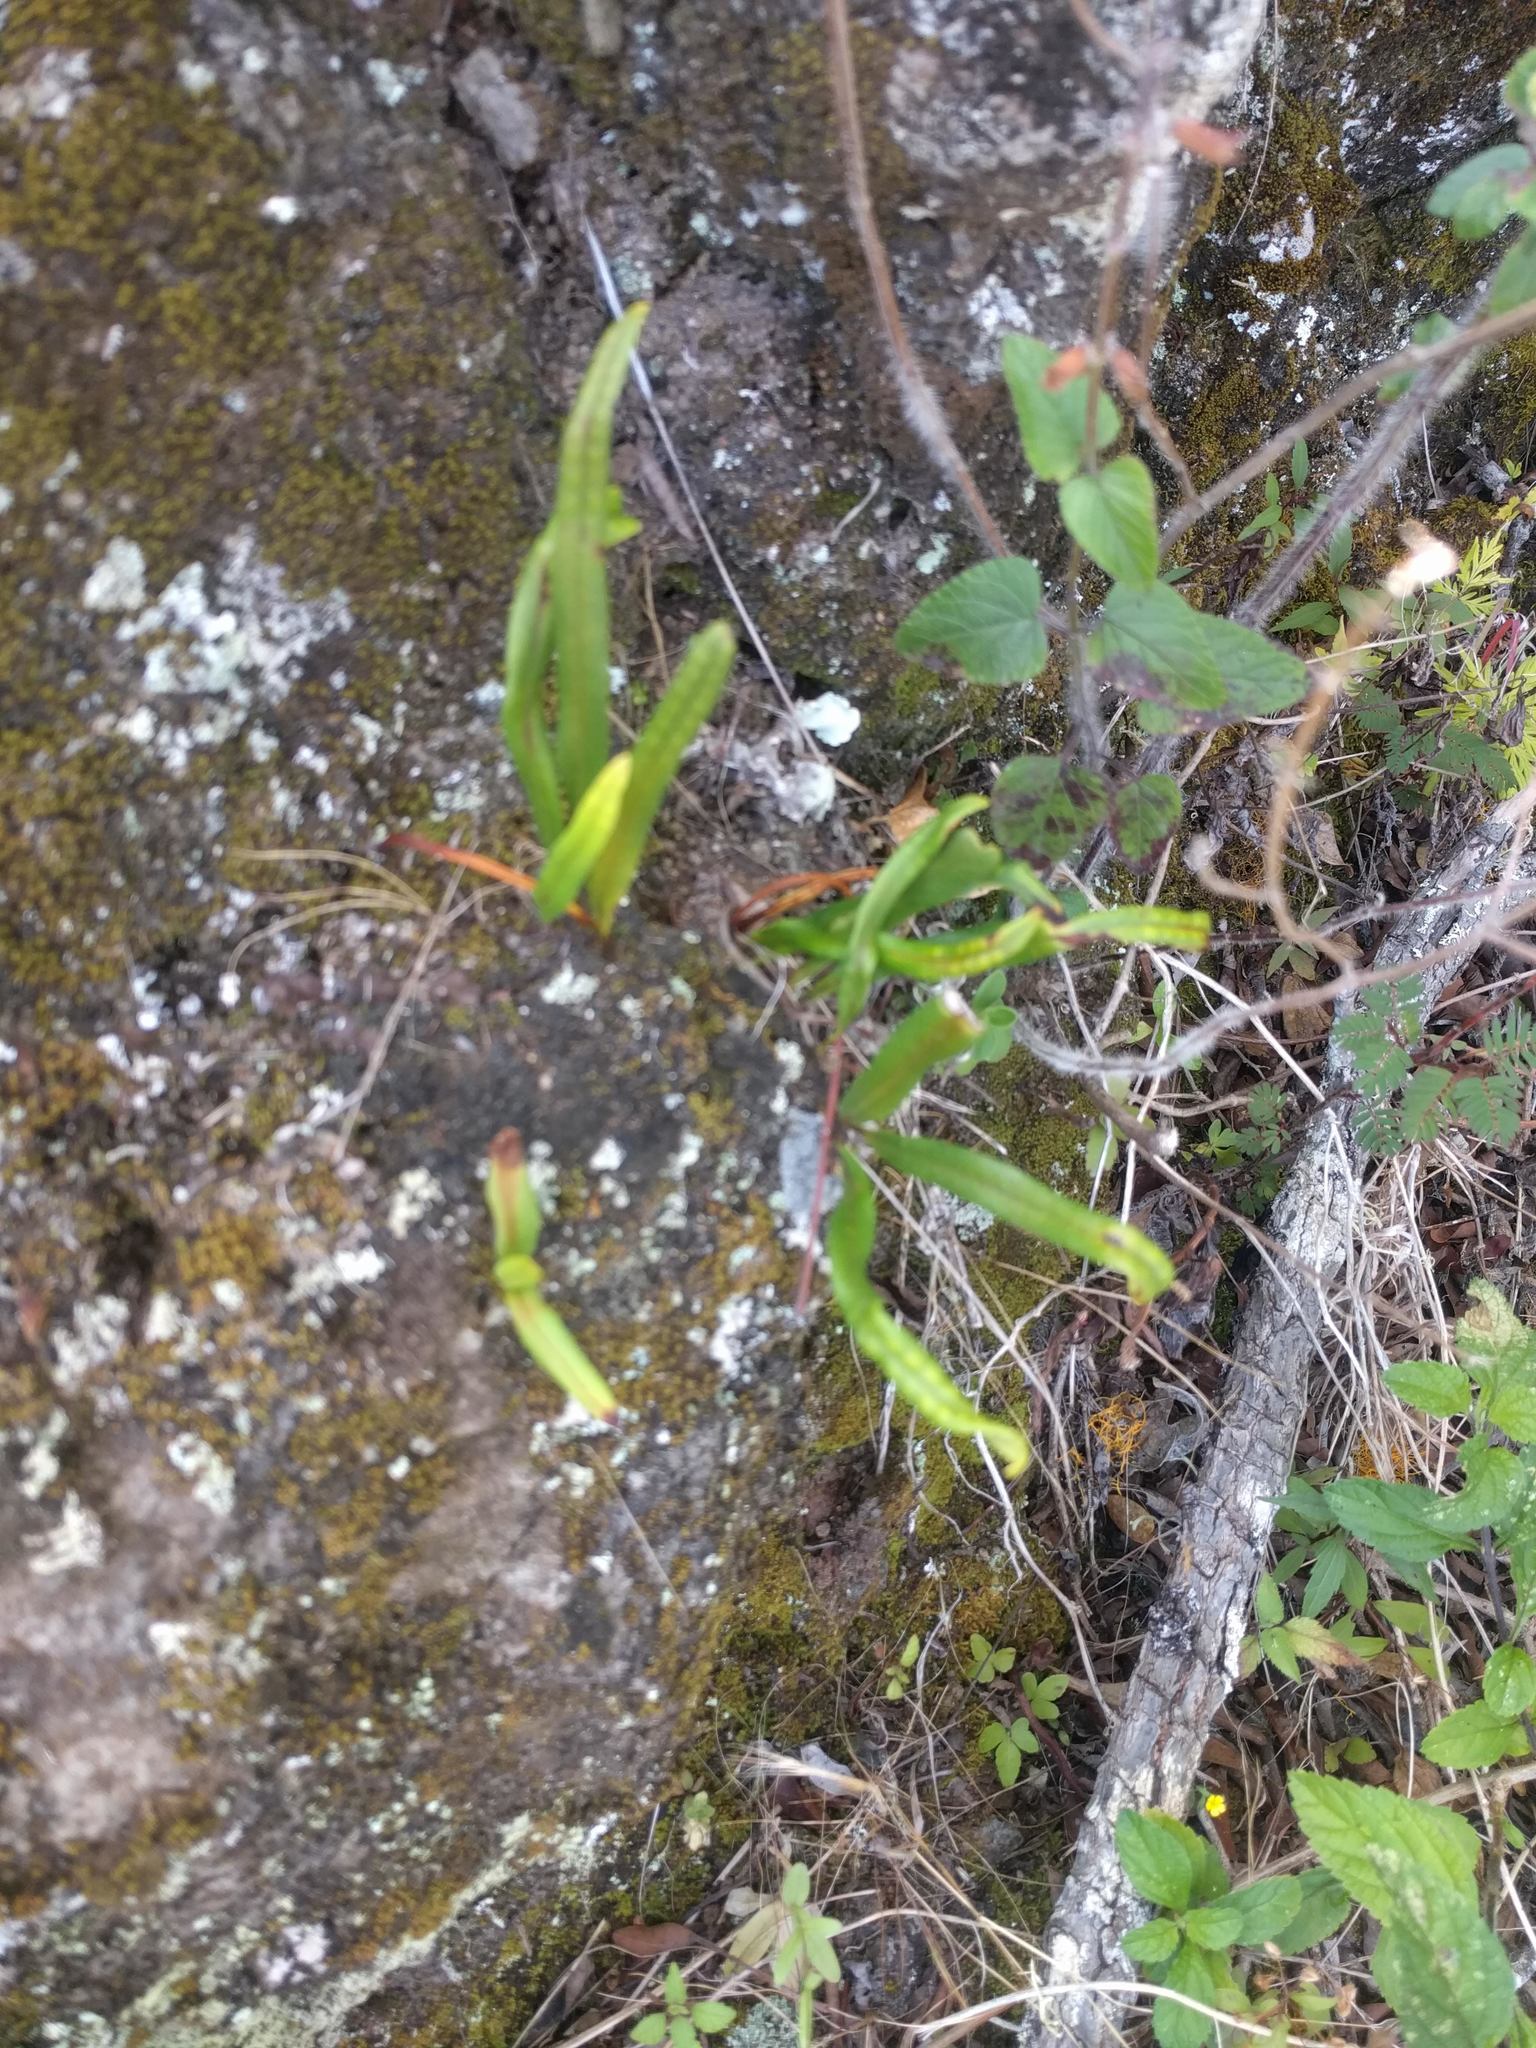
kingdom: Plantae
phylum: Tracheophyta
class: Polypodiopsida
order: Polypodiales
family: Polypodiaceae
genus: Lepisorus
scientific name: Lepisorus thunbergianus
